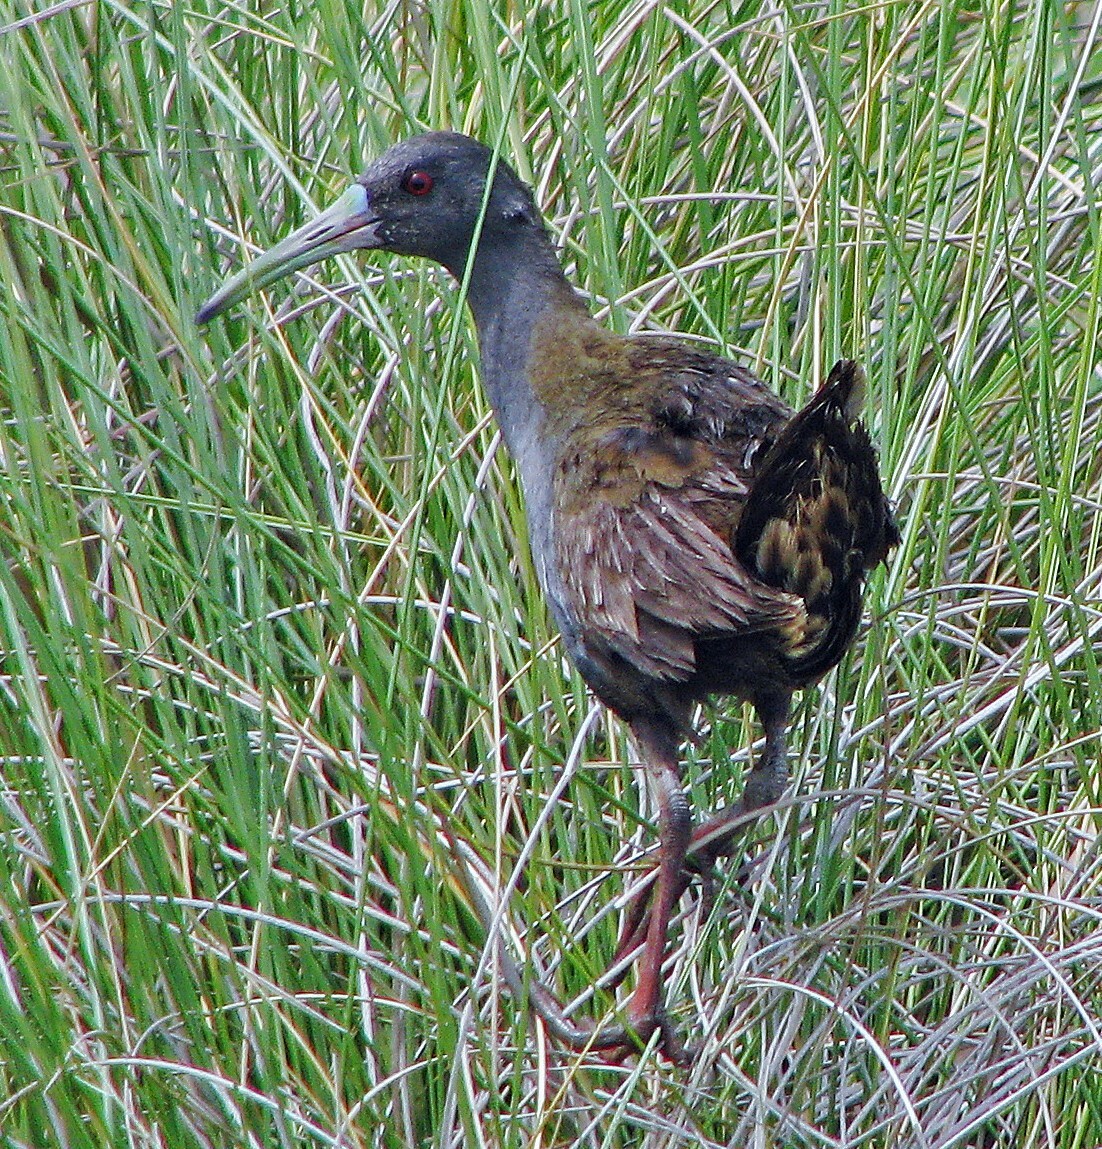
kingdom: Animalia
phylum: Chordata
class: Aves
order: Gruiformes
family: Rallidae
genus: Pardirallus
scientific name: Pardirallus sanguinolentus
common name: Plumbeous rail
